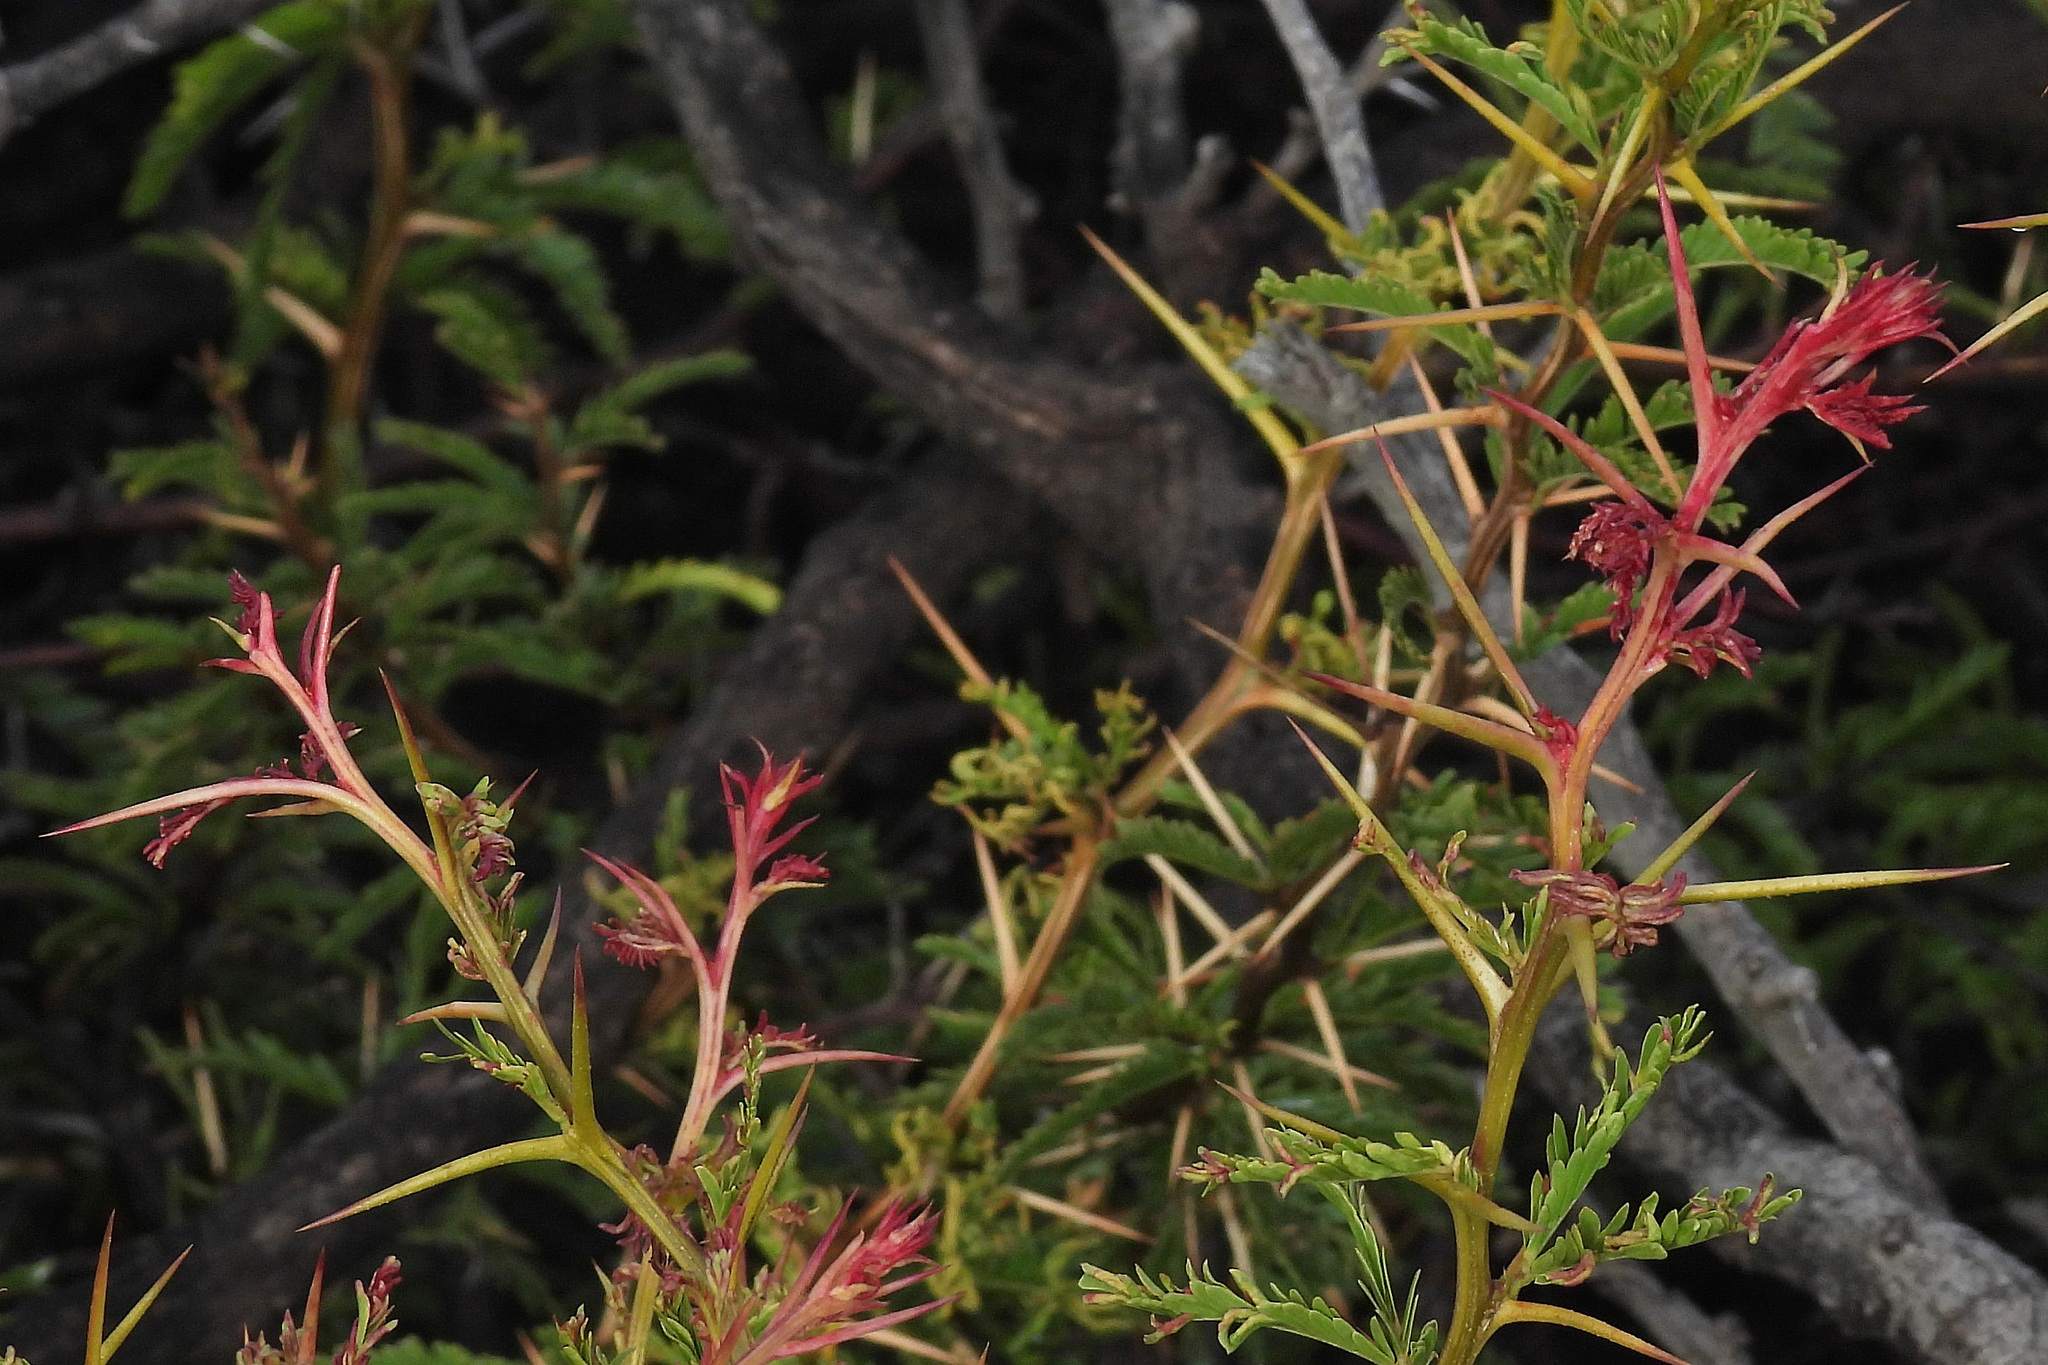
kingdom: Plantae
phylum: Tracheophyta
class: Magnoliopsida
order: Fabales
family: Fabaceae
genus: Prosopis
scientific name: Prosopis ferox
